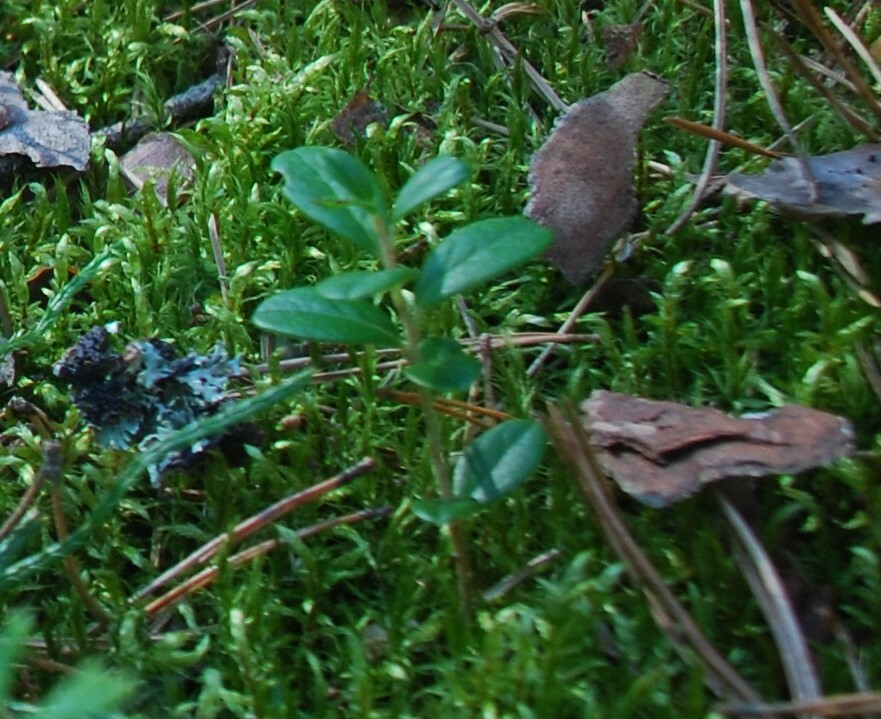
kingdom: Plantae
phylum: Tracheophyta
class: Magnoliopsida
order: Ericales
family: Ericaceae
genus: Vaccinium
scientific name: Vaccinium vitis-idaea
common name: Cowberry
